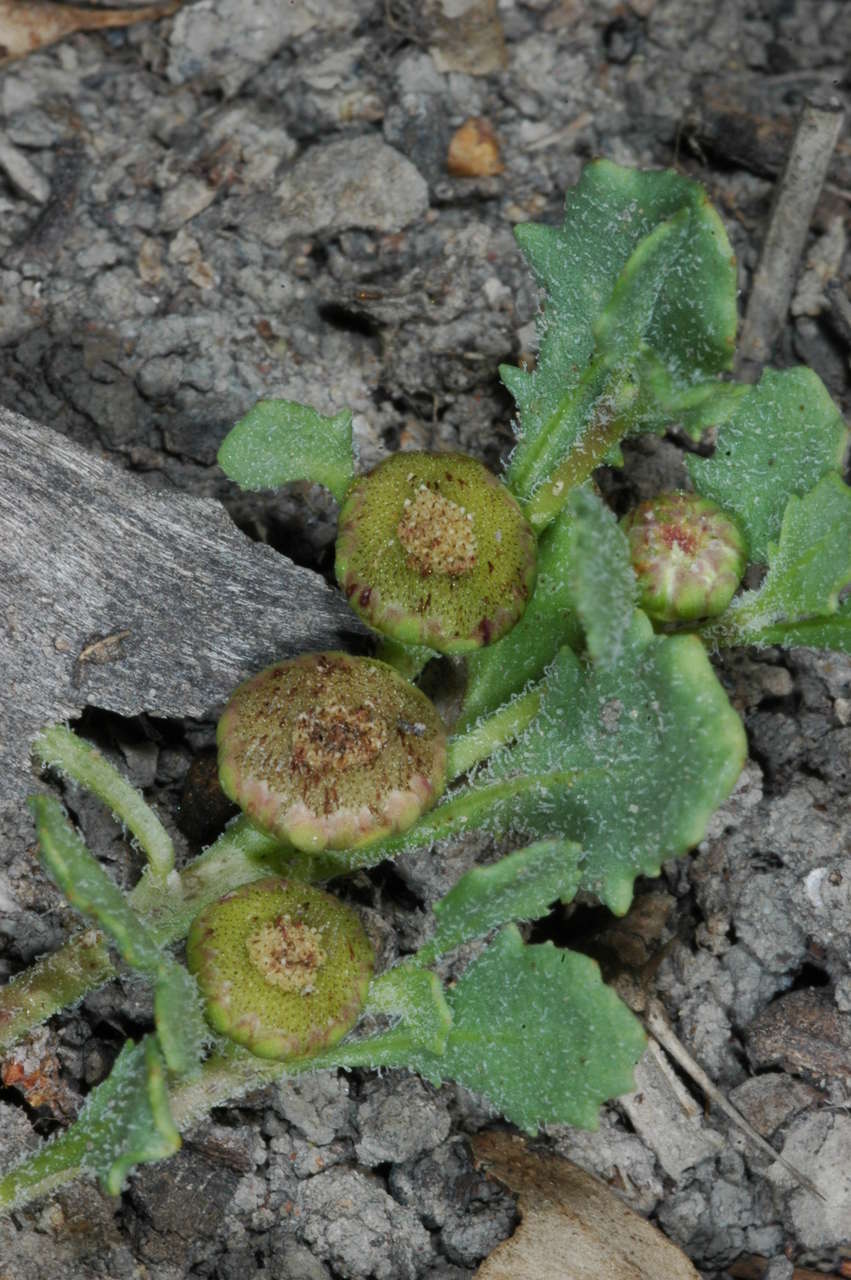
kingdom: Plantae
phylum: Tracheophyta
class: Magnoliopsida
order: Asterales
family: Asteraceae
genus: Sphaeromorphaea
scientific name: Sphaeromorphaea australis
